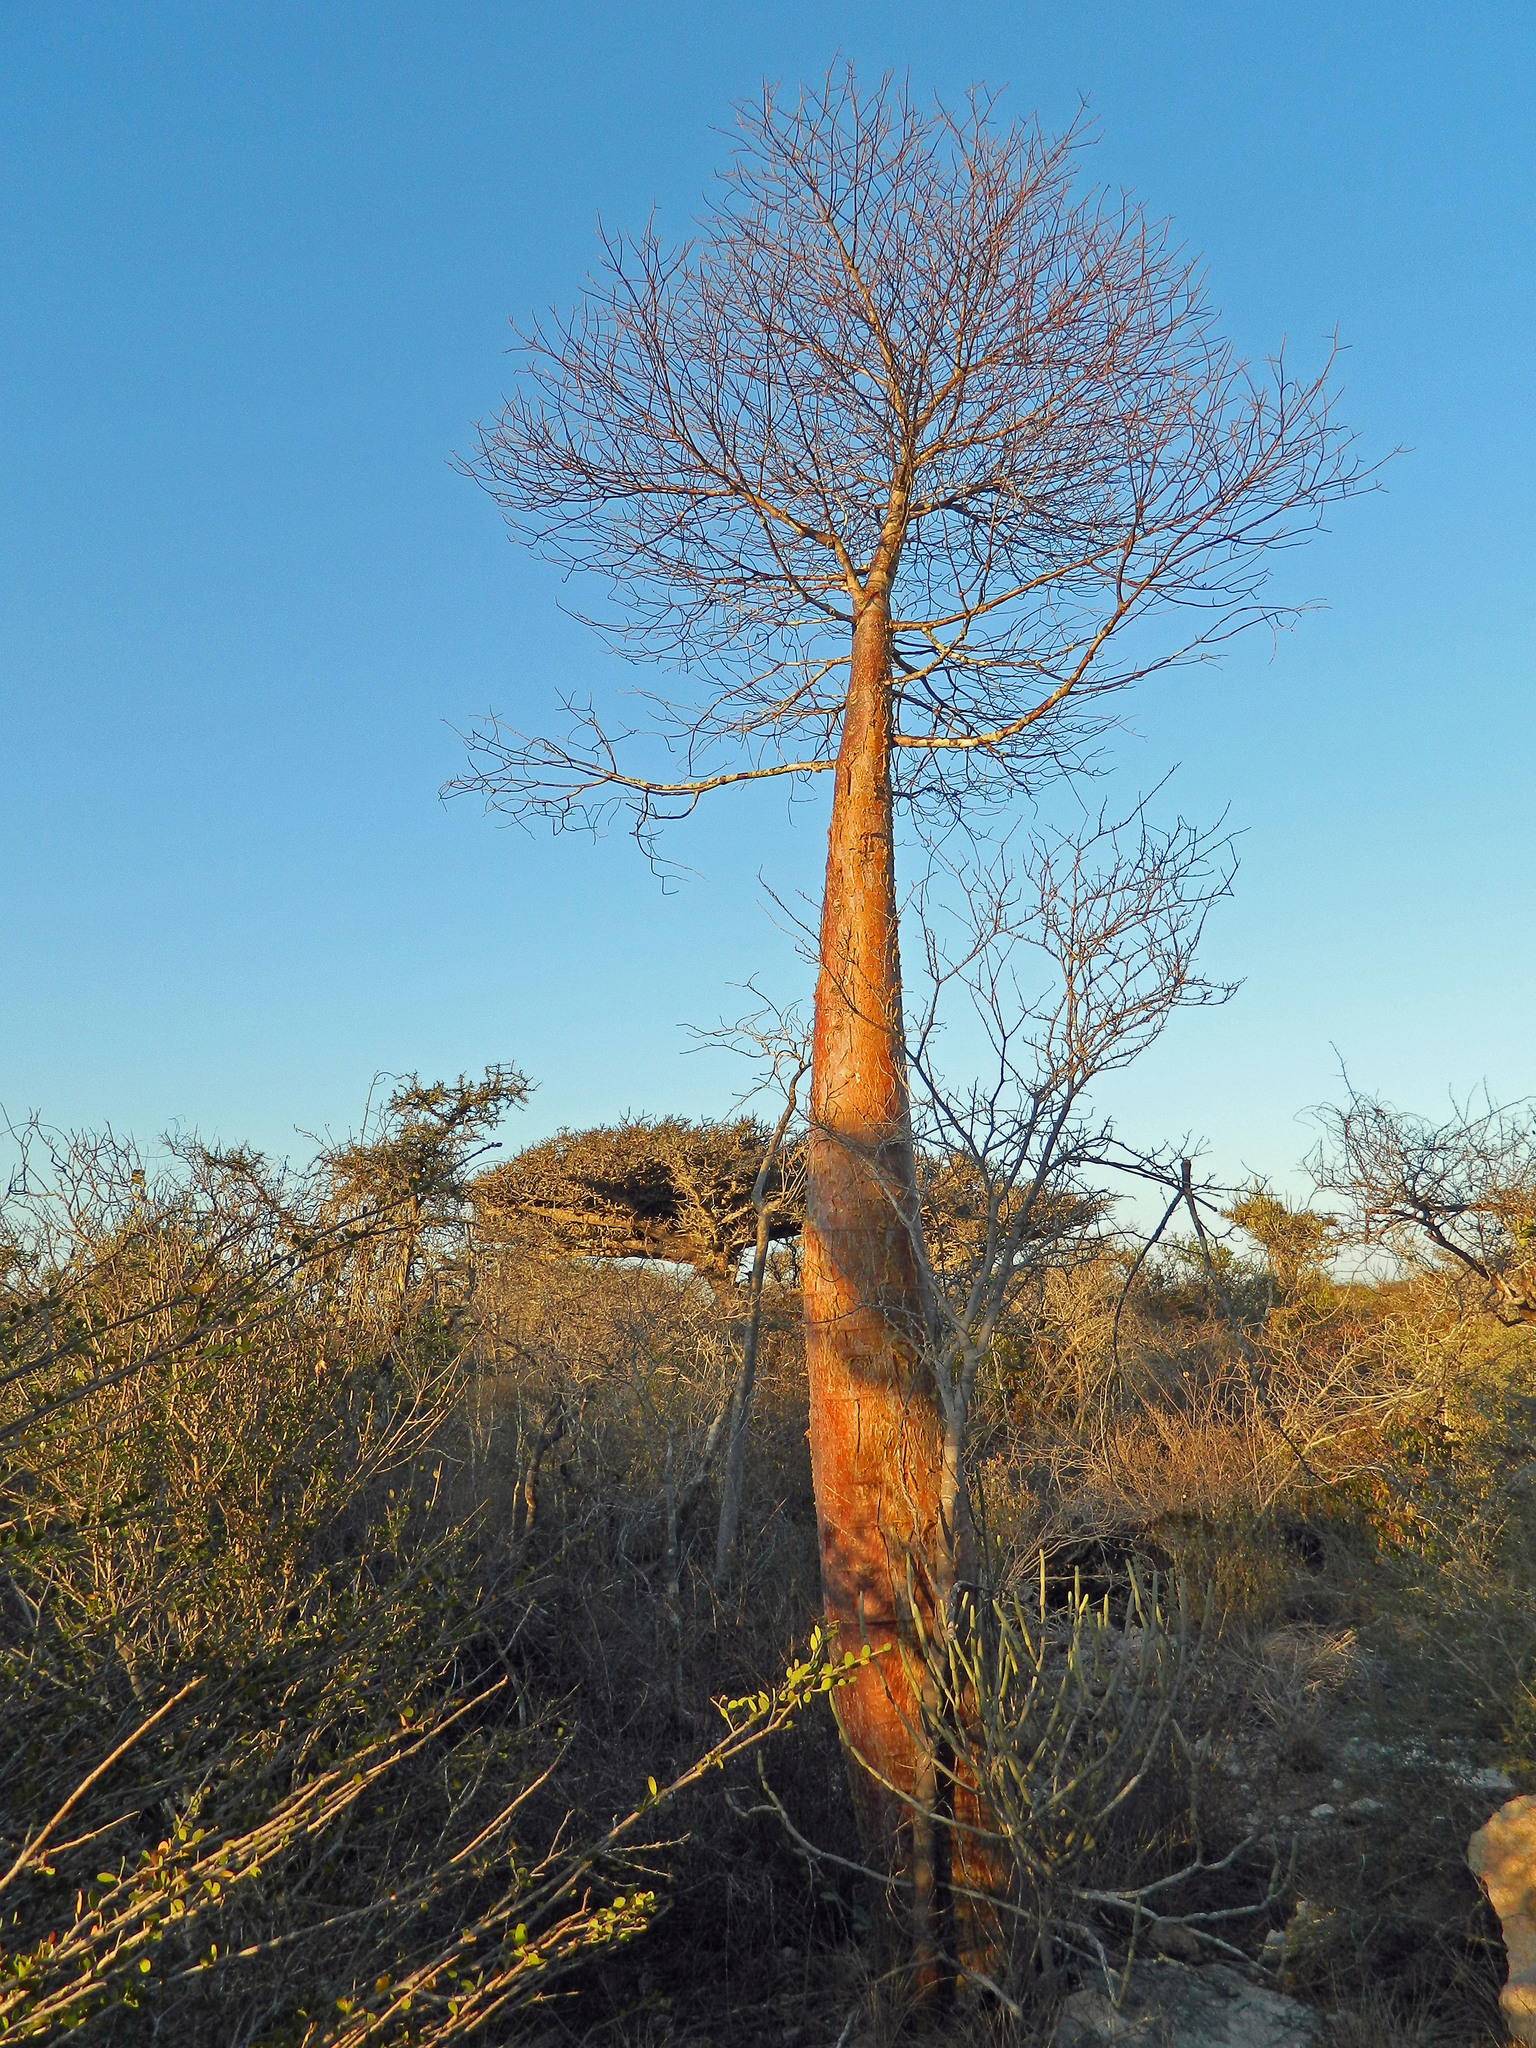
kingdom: Plantae
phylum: Tracheophyta
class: Magnoliopsida
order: Malvales
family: Malvaceae
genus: Adansonia
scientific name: Adansonia rubrostipa
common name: Fony baobab
